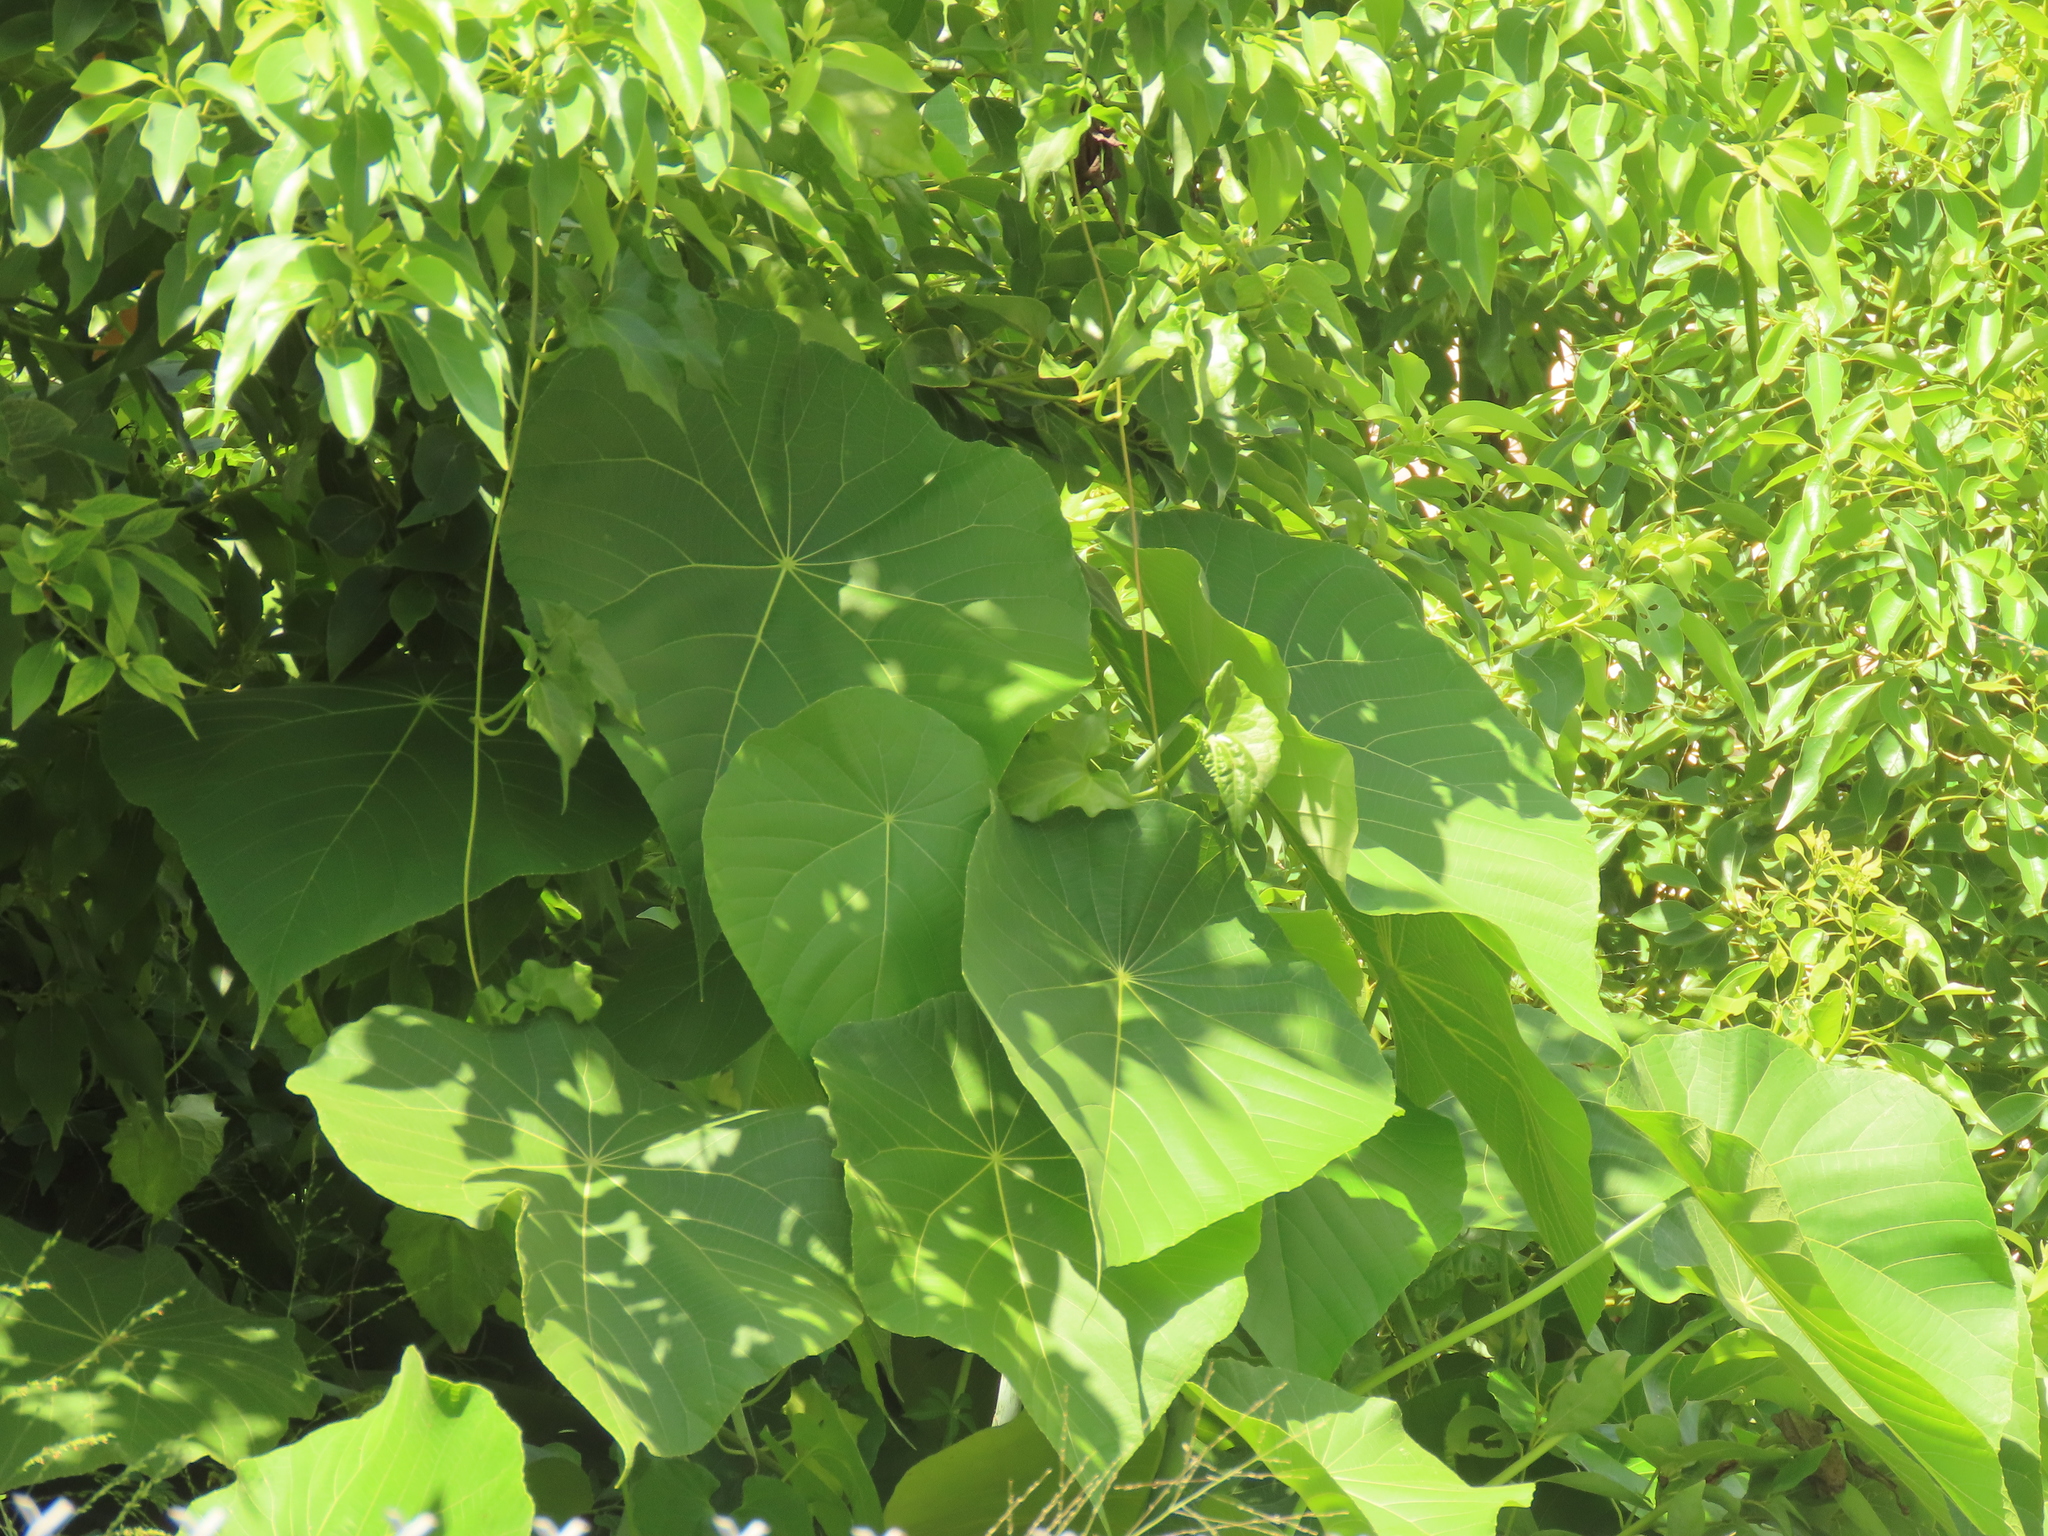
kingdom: Plantae
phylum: Tracheophyta
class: Magnoliopsida
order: Malpighiales
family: Euphorbiaceae
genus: Macaranga
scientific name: Macaranga tanarius
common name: Parasol leaf tree
